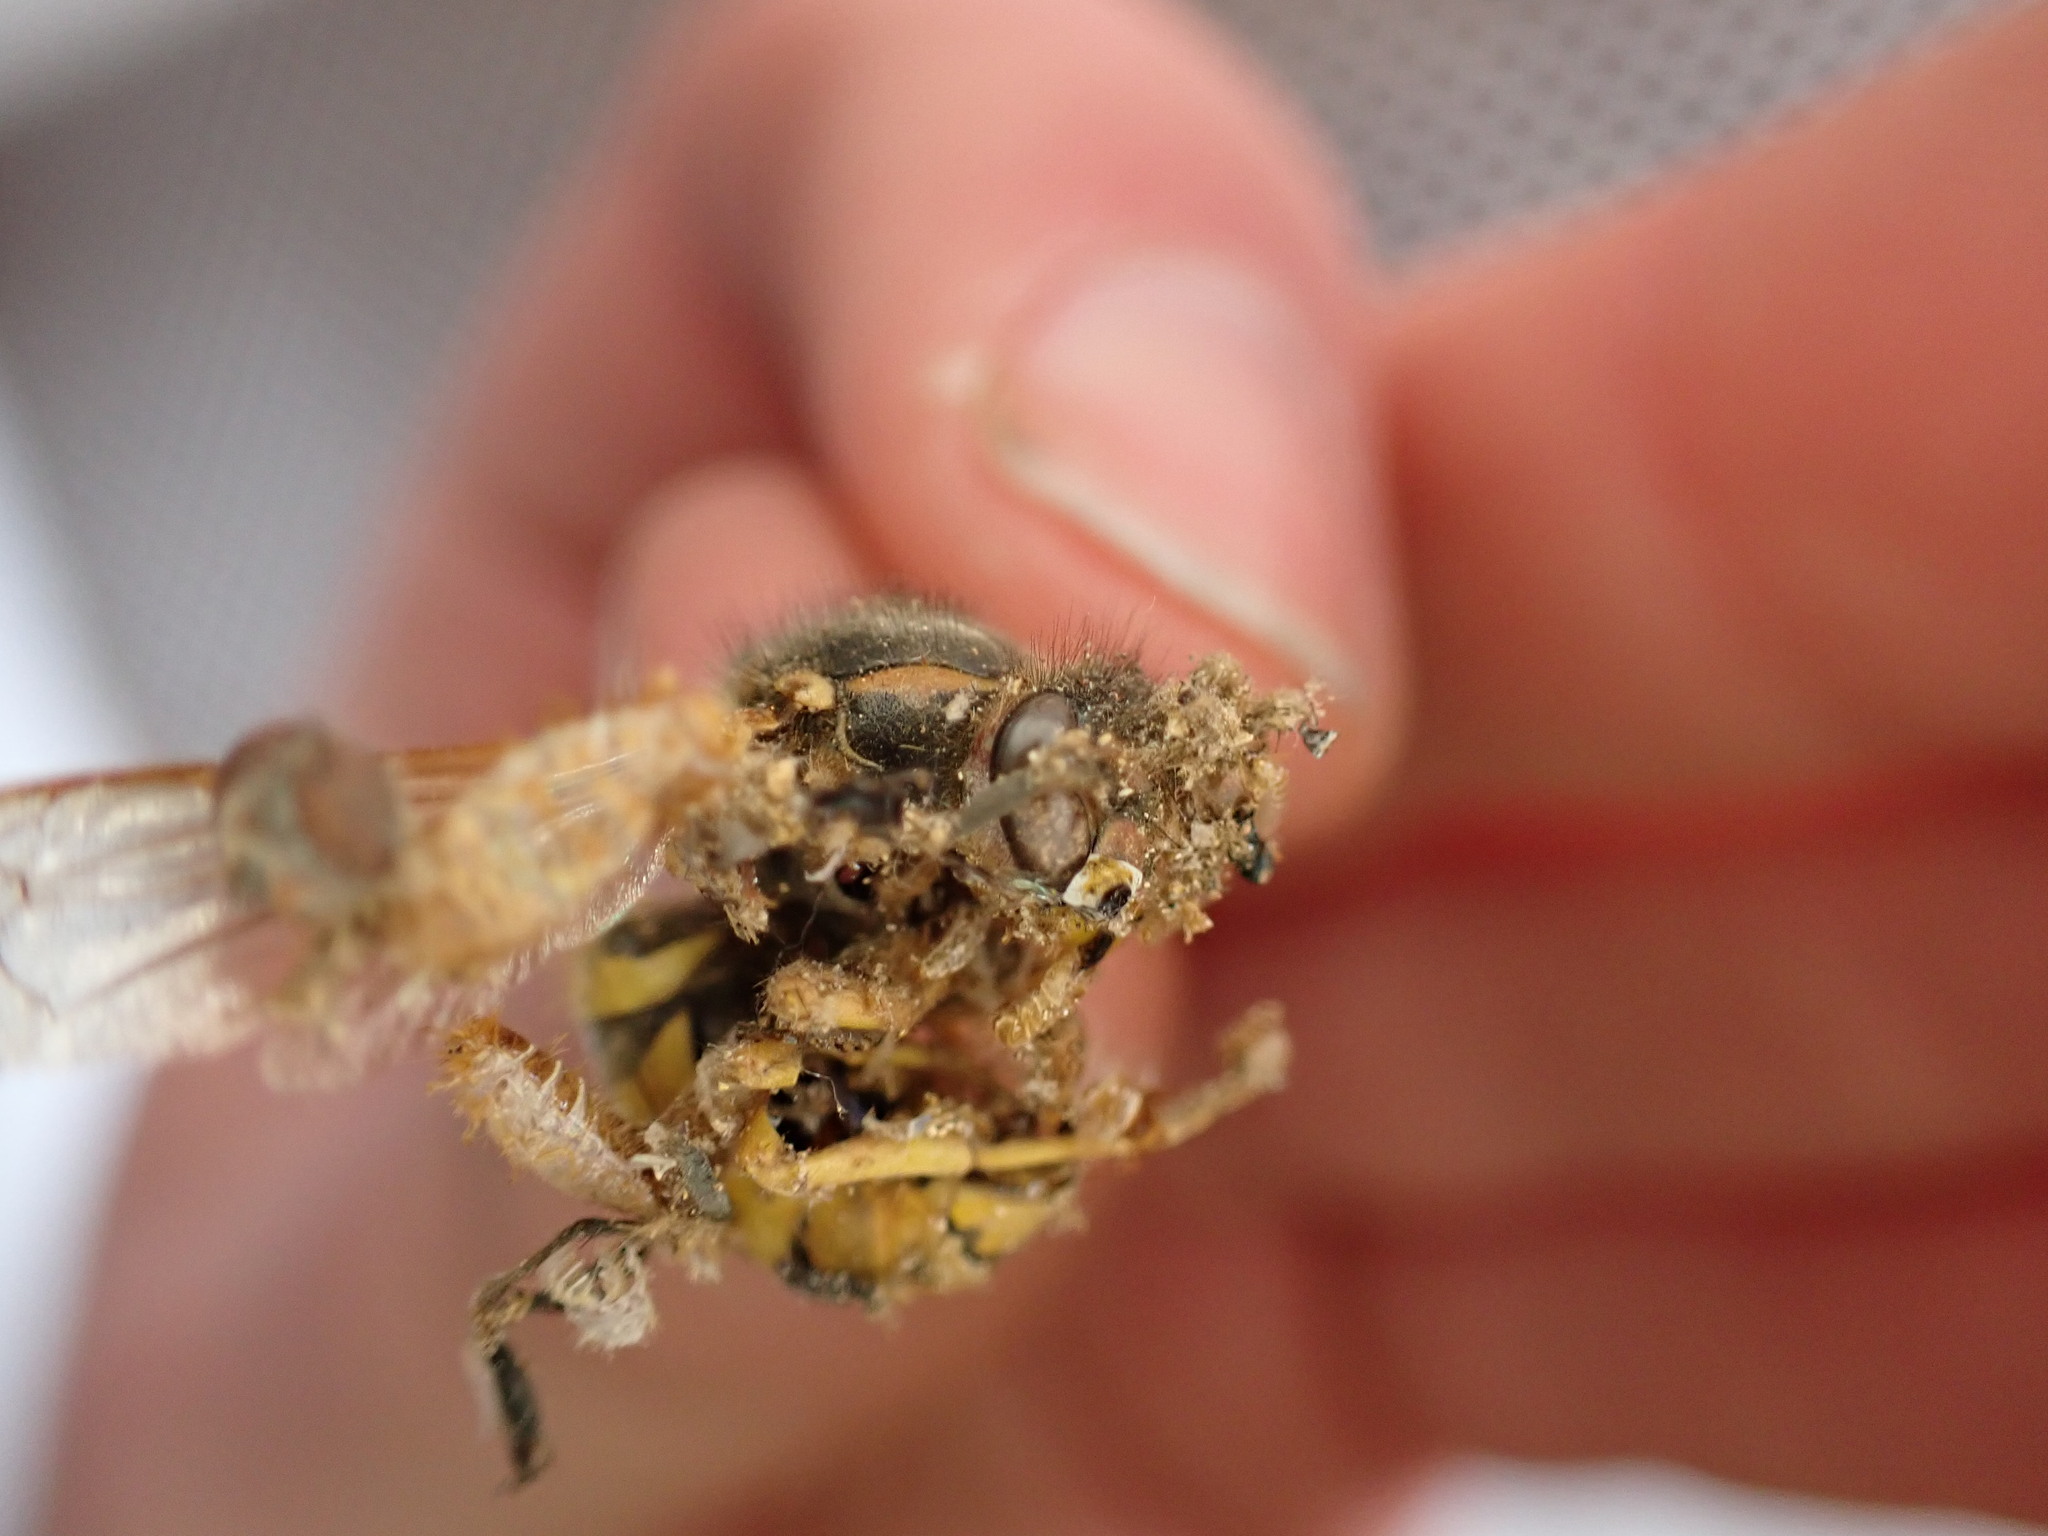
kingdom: Animalia
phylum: Arthropoda
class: Insecta
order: Hymenoptera
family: Vespidae
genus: Vespula
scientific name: Vespula germanica
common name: German wasp
